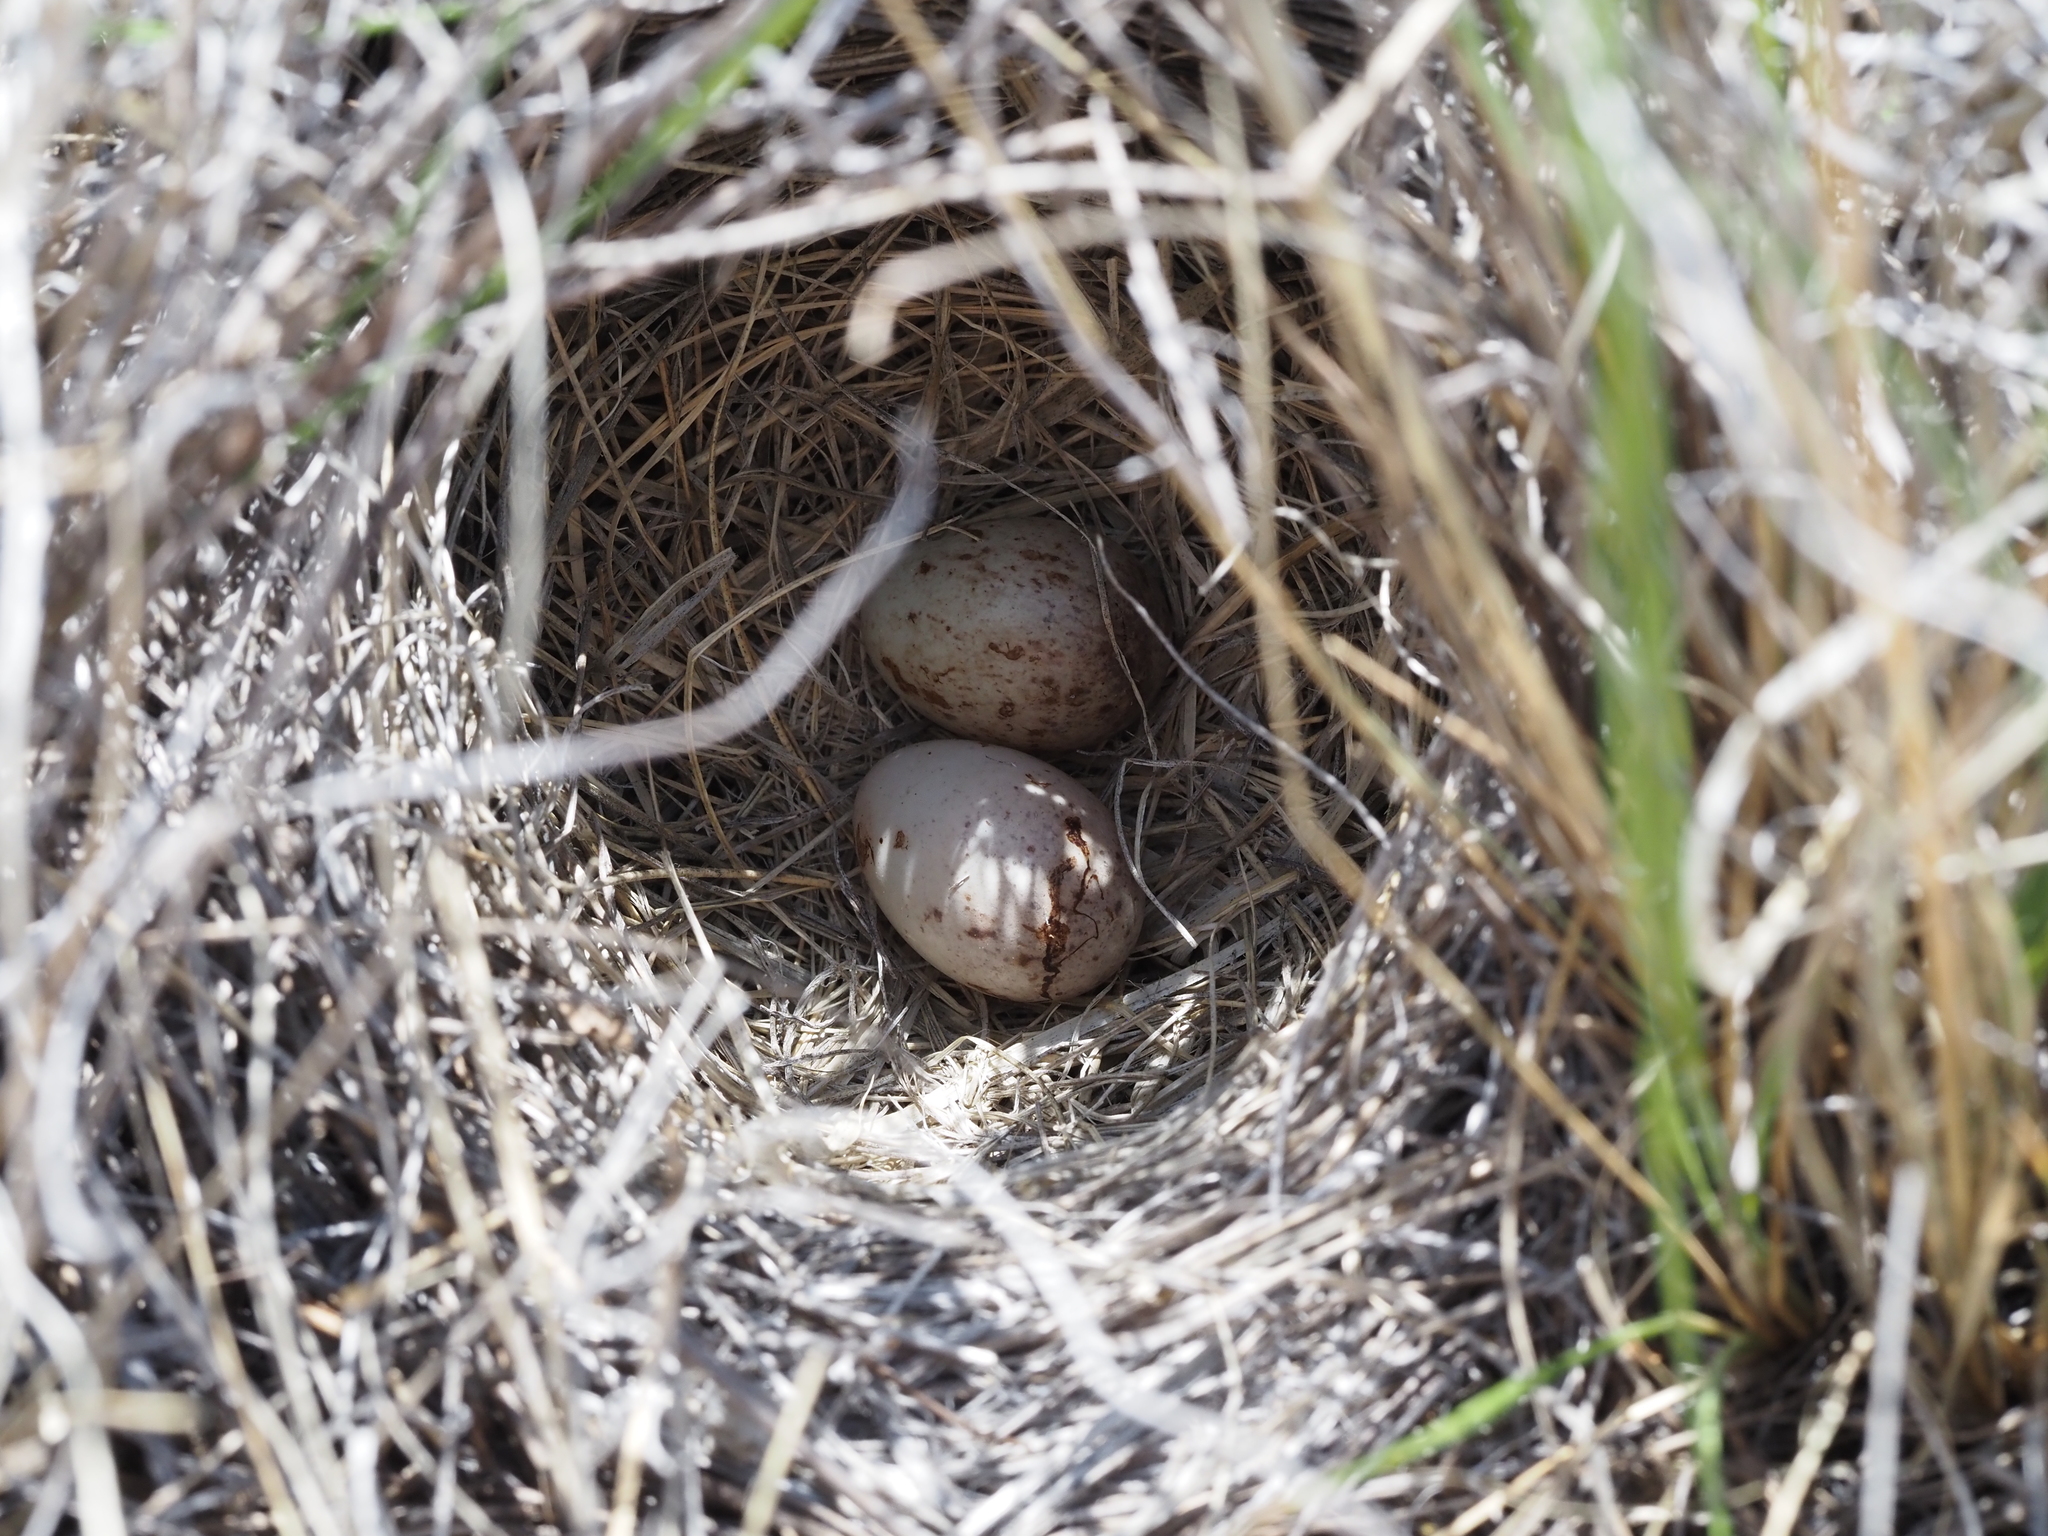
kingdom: Animalia
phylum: Chordata
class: Aves
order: Passeriformes
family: Passerellidae
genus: Pooecetes
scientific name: Pooecetes gramineus
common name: Vesper sparrow
